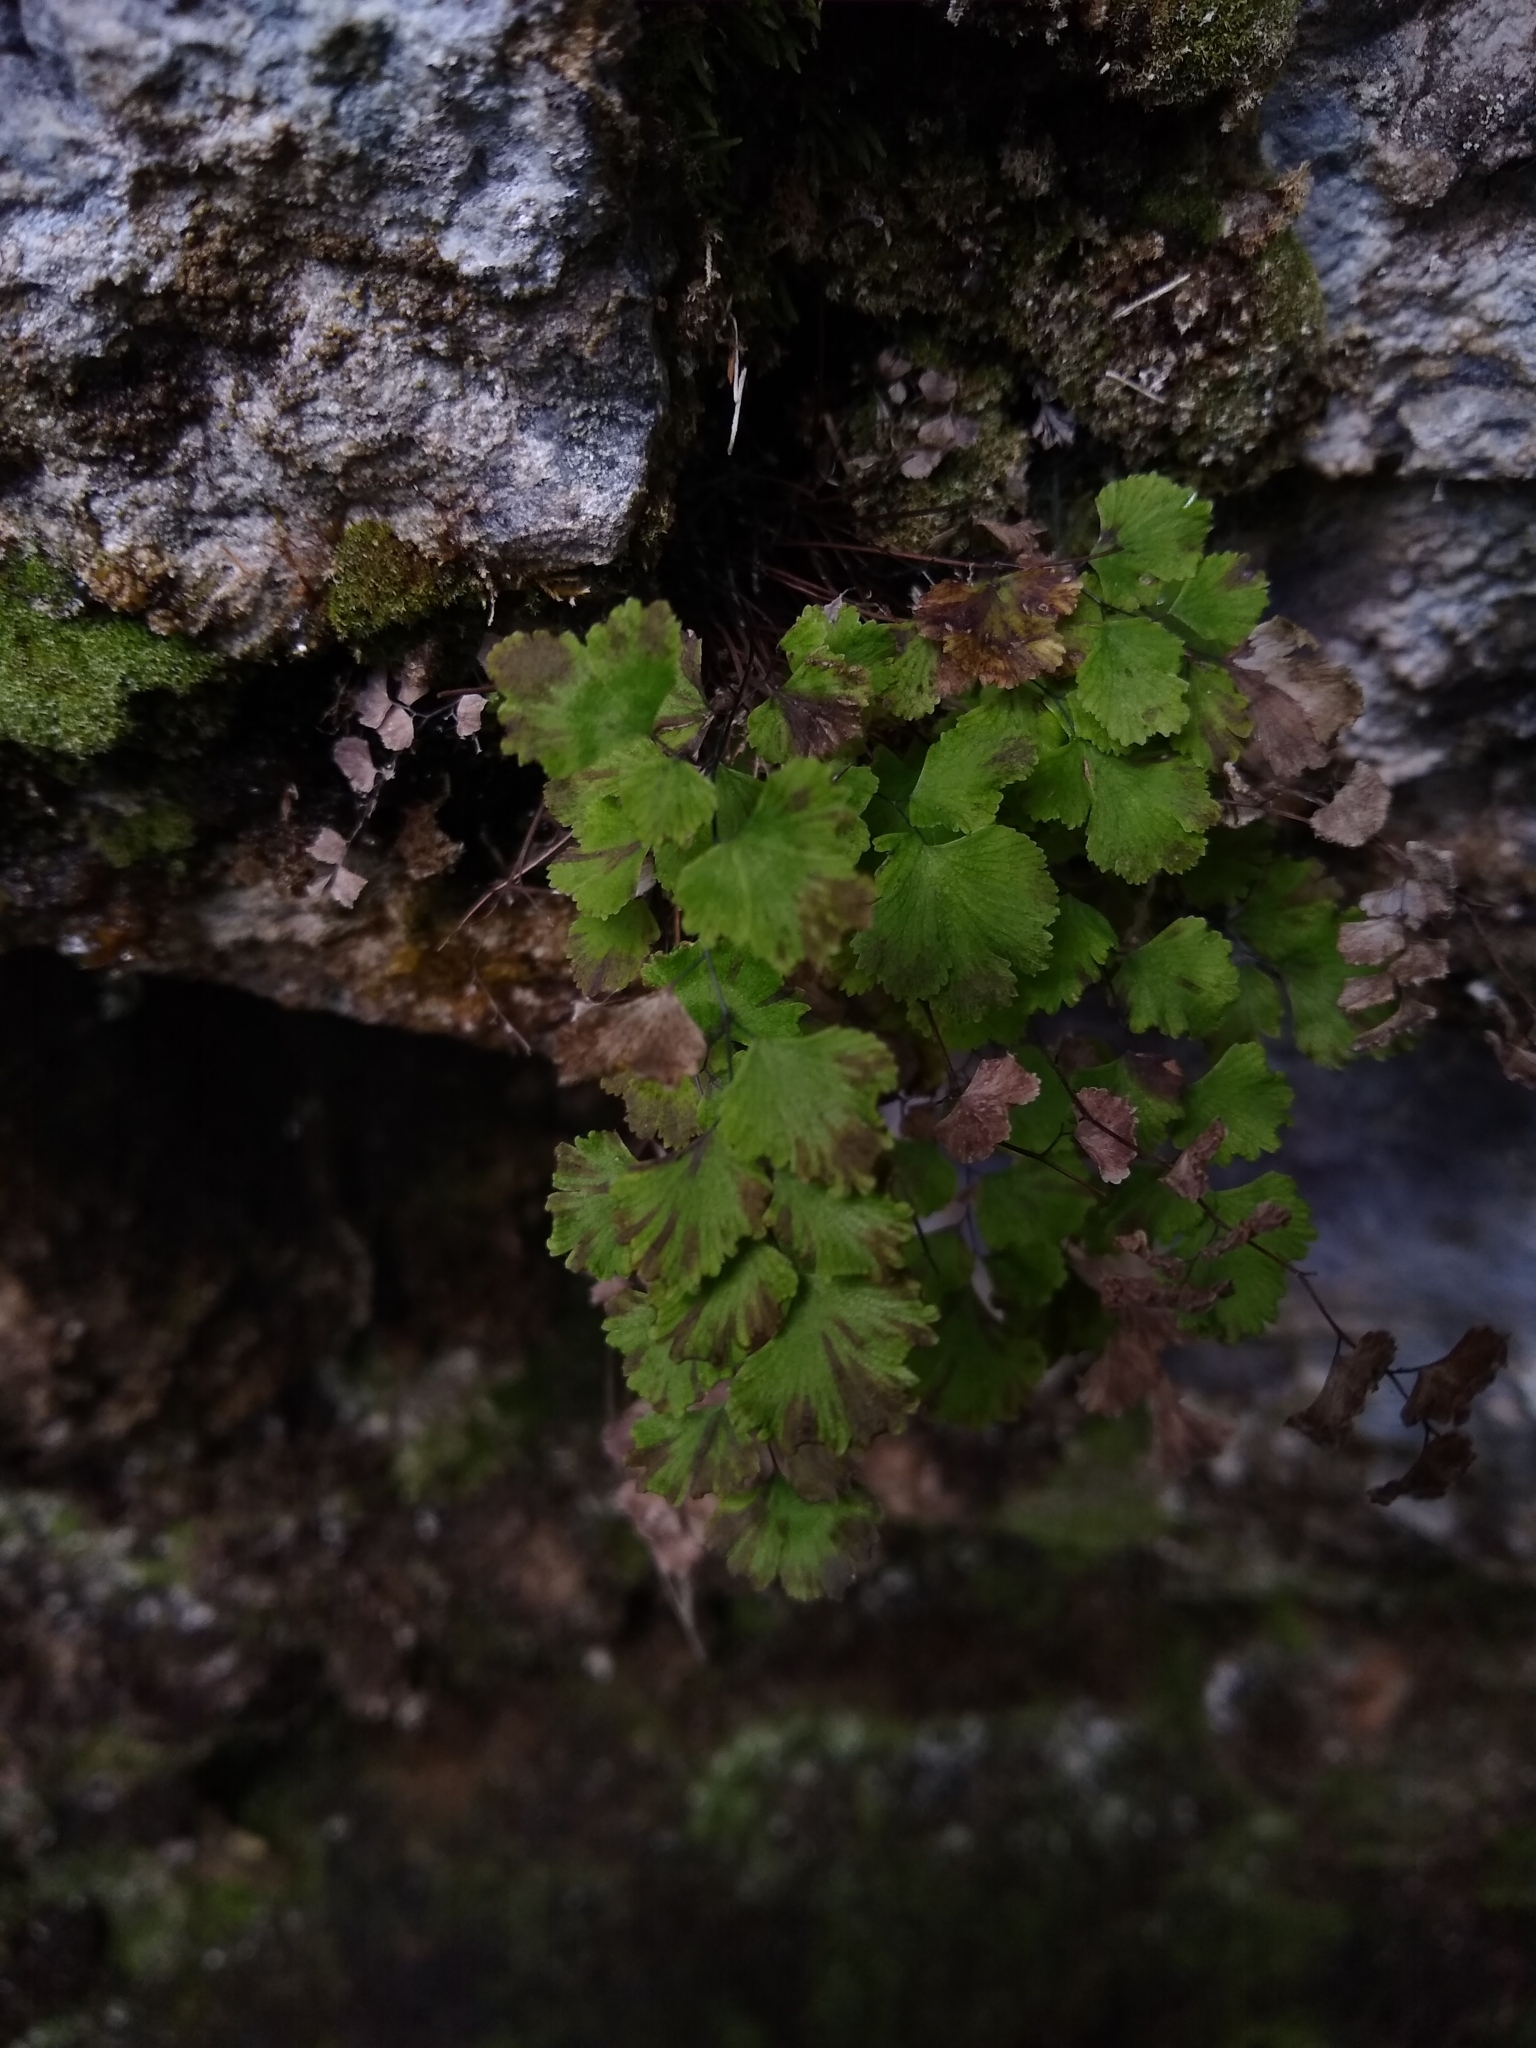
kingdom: Plantae
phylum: Tracheophyta
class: Polypodiopsida
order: Polypodiales
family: Pteridaceae
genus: Adiantum
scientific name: Adiantum sulphureum
